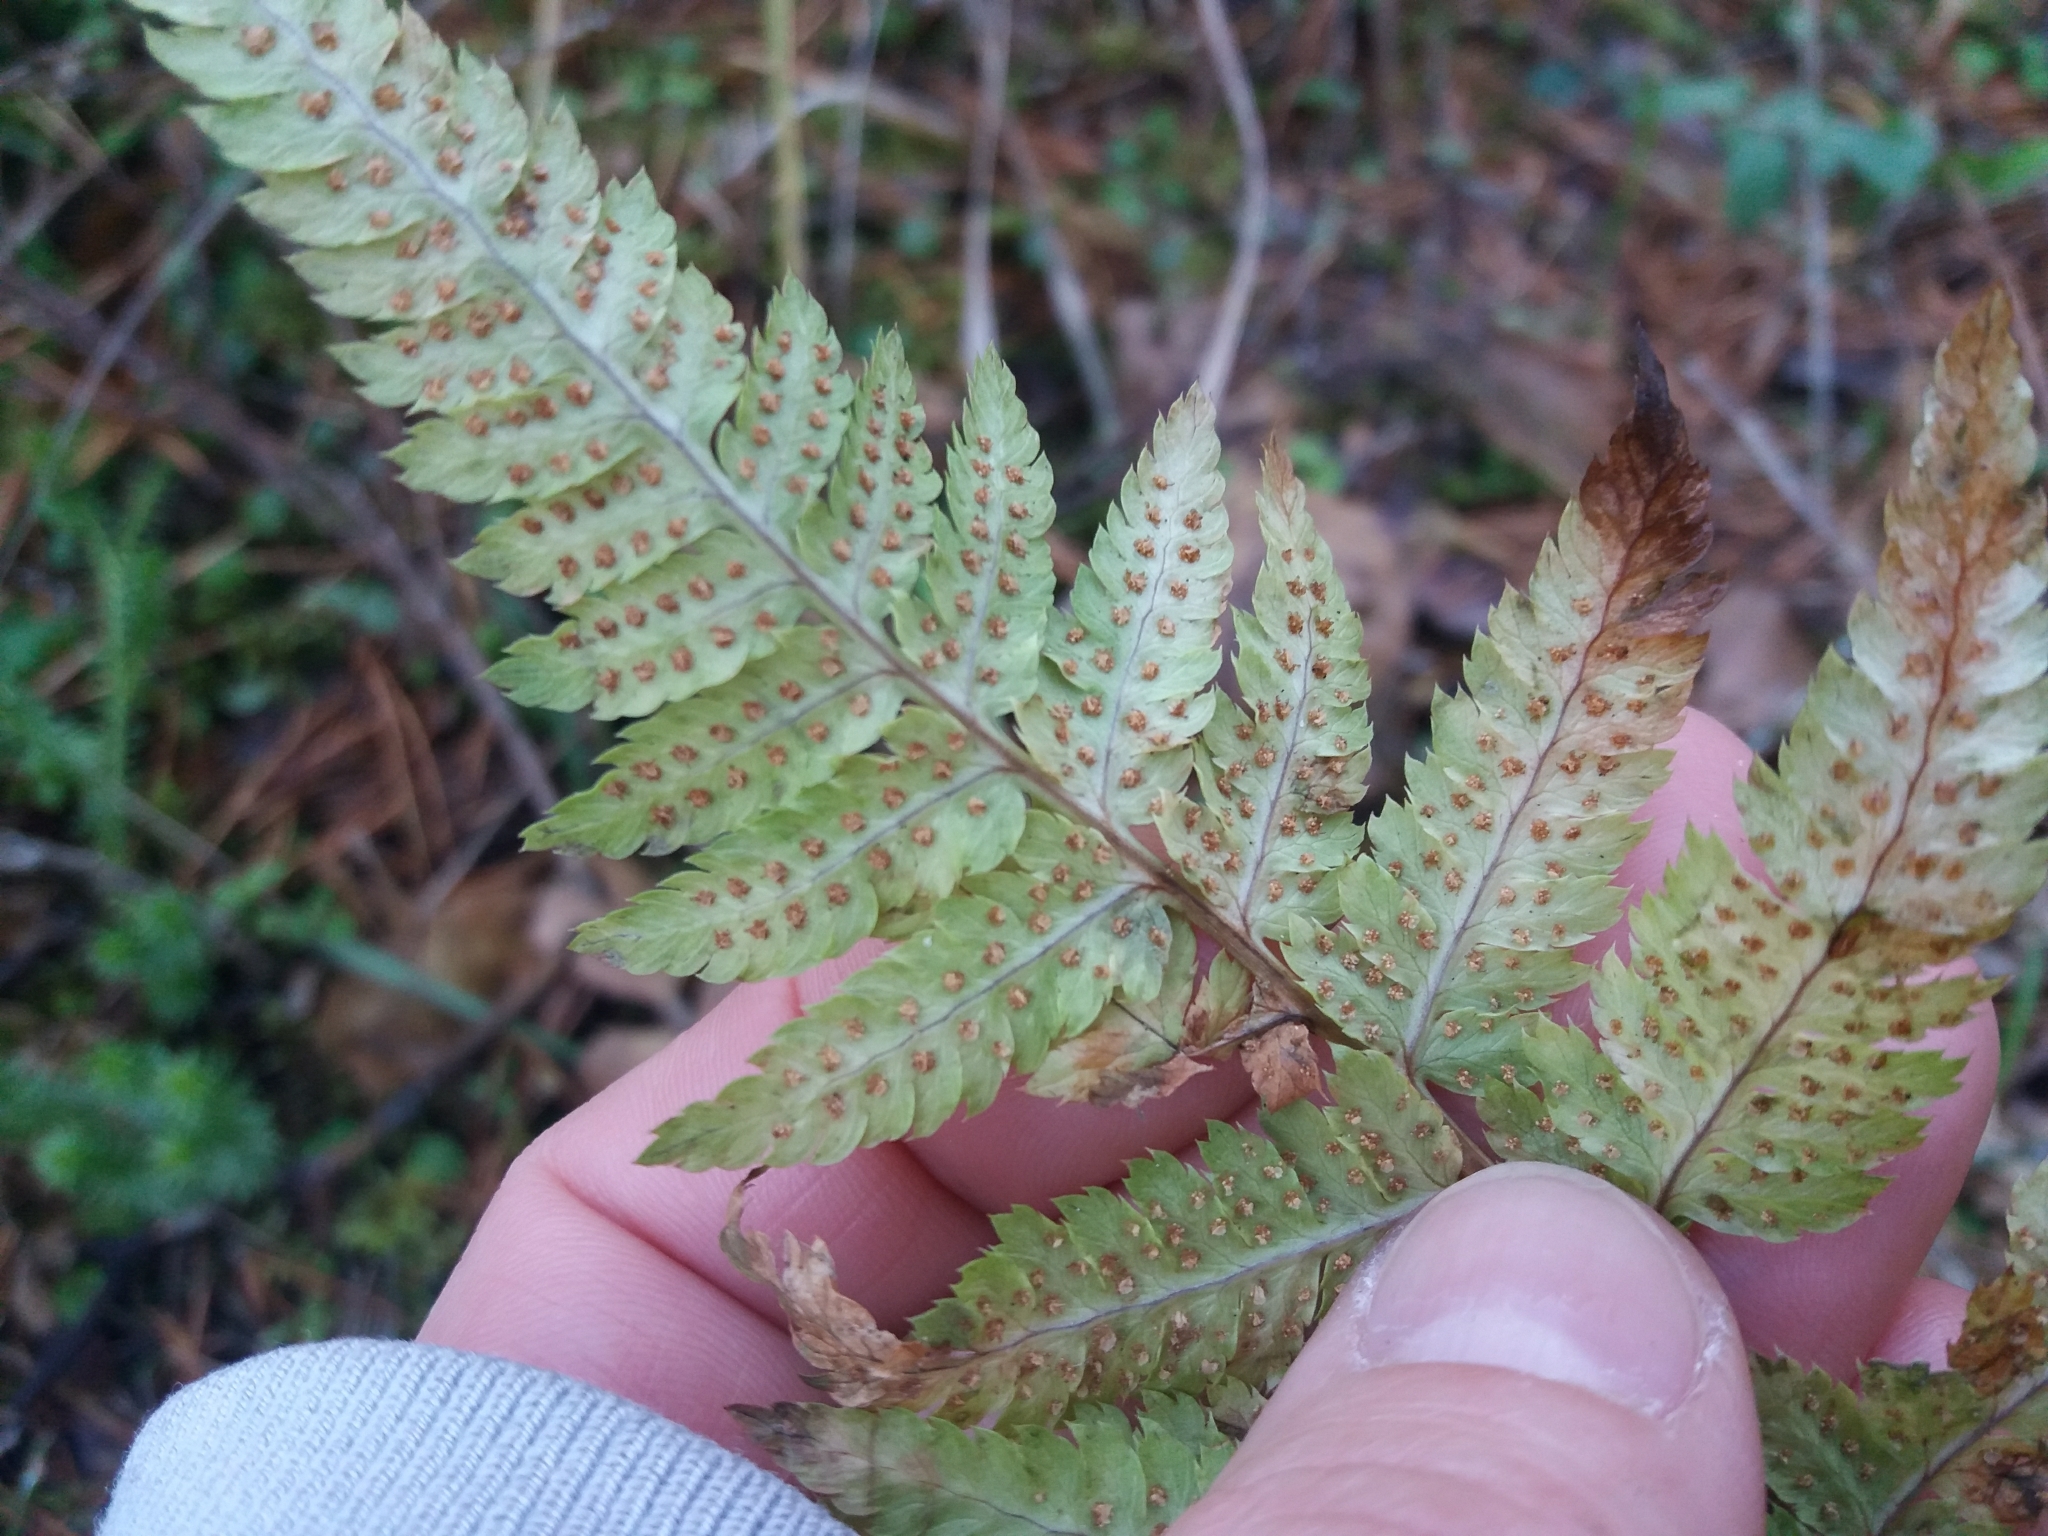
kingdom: Plantae
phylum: Tracheophyta
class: Polypodiopsida
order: Polypodiales
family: Dryopteridaceae
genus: Dryopteris
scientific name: Dryopteris expansa
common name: Northern buckler fern
